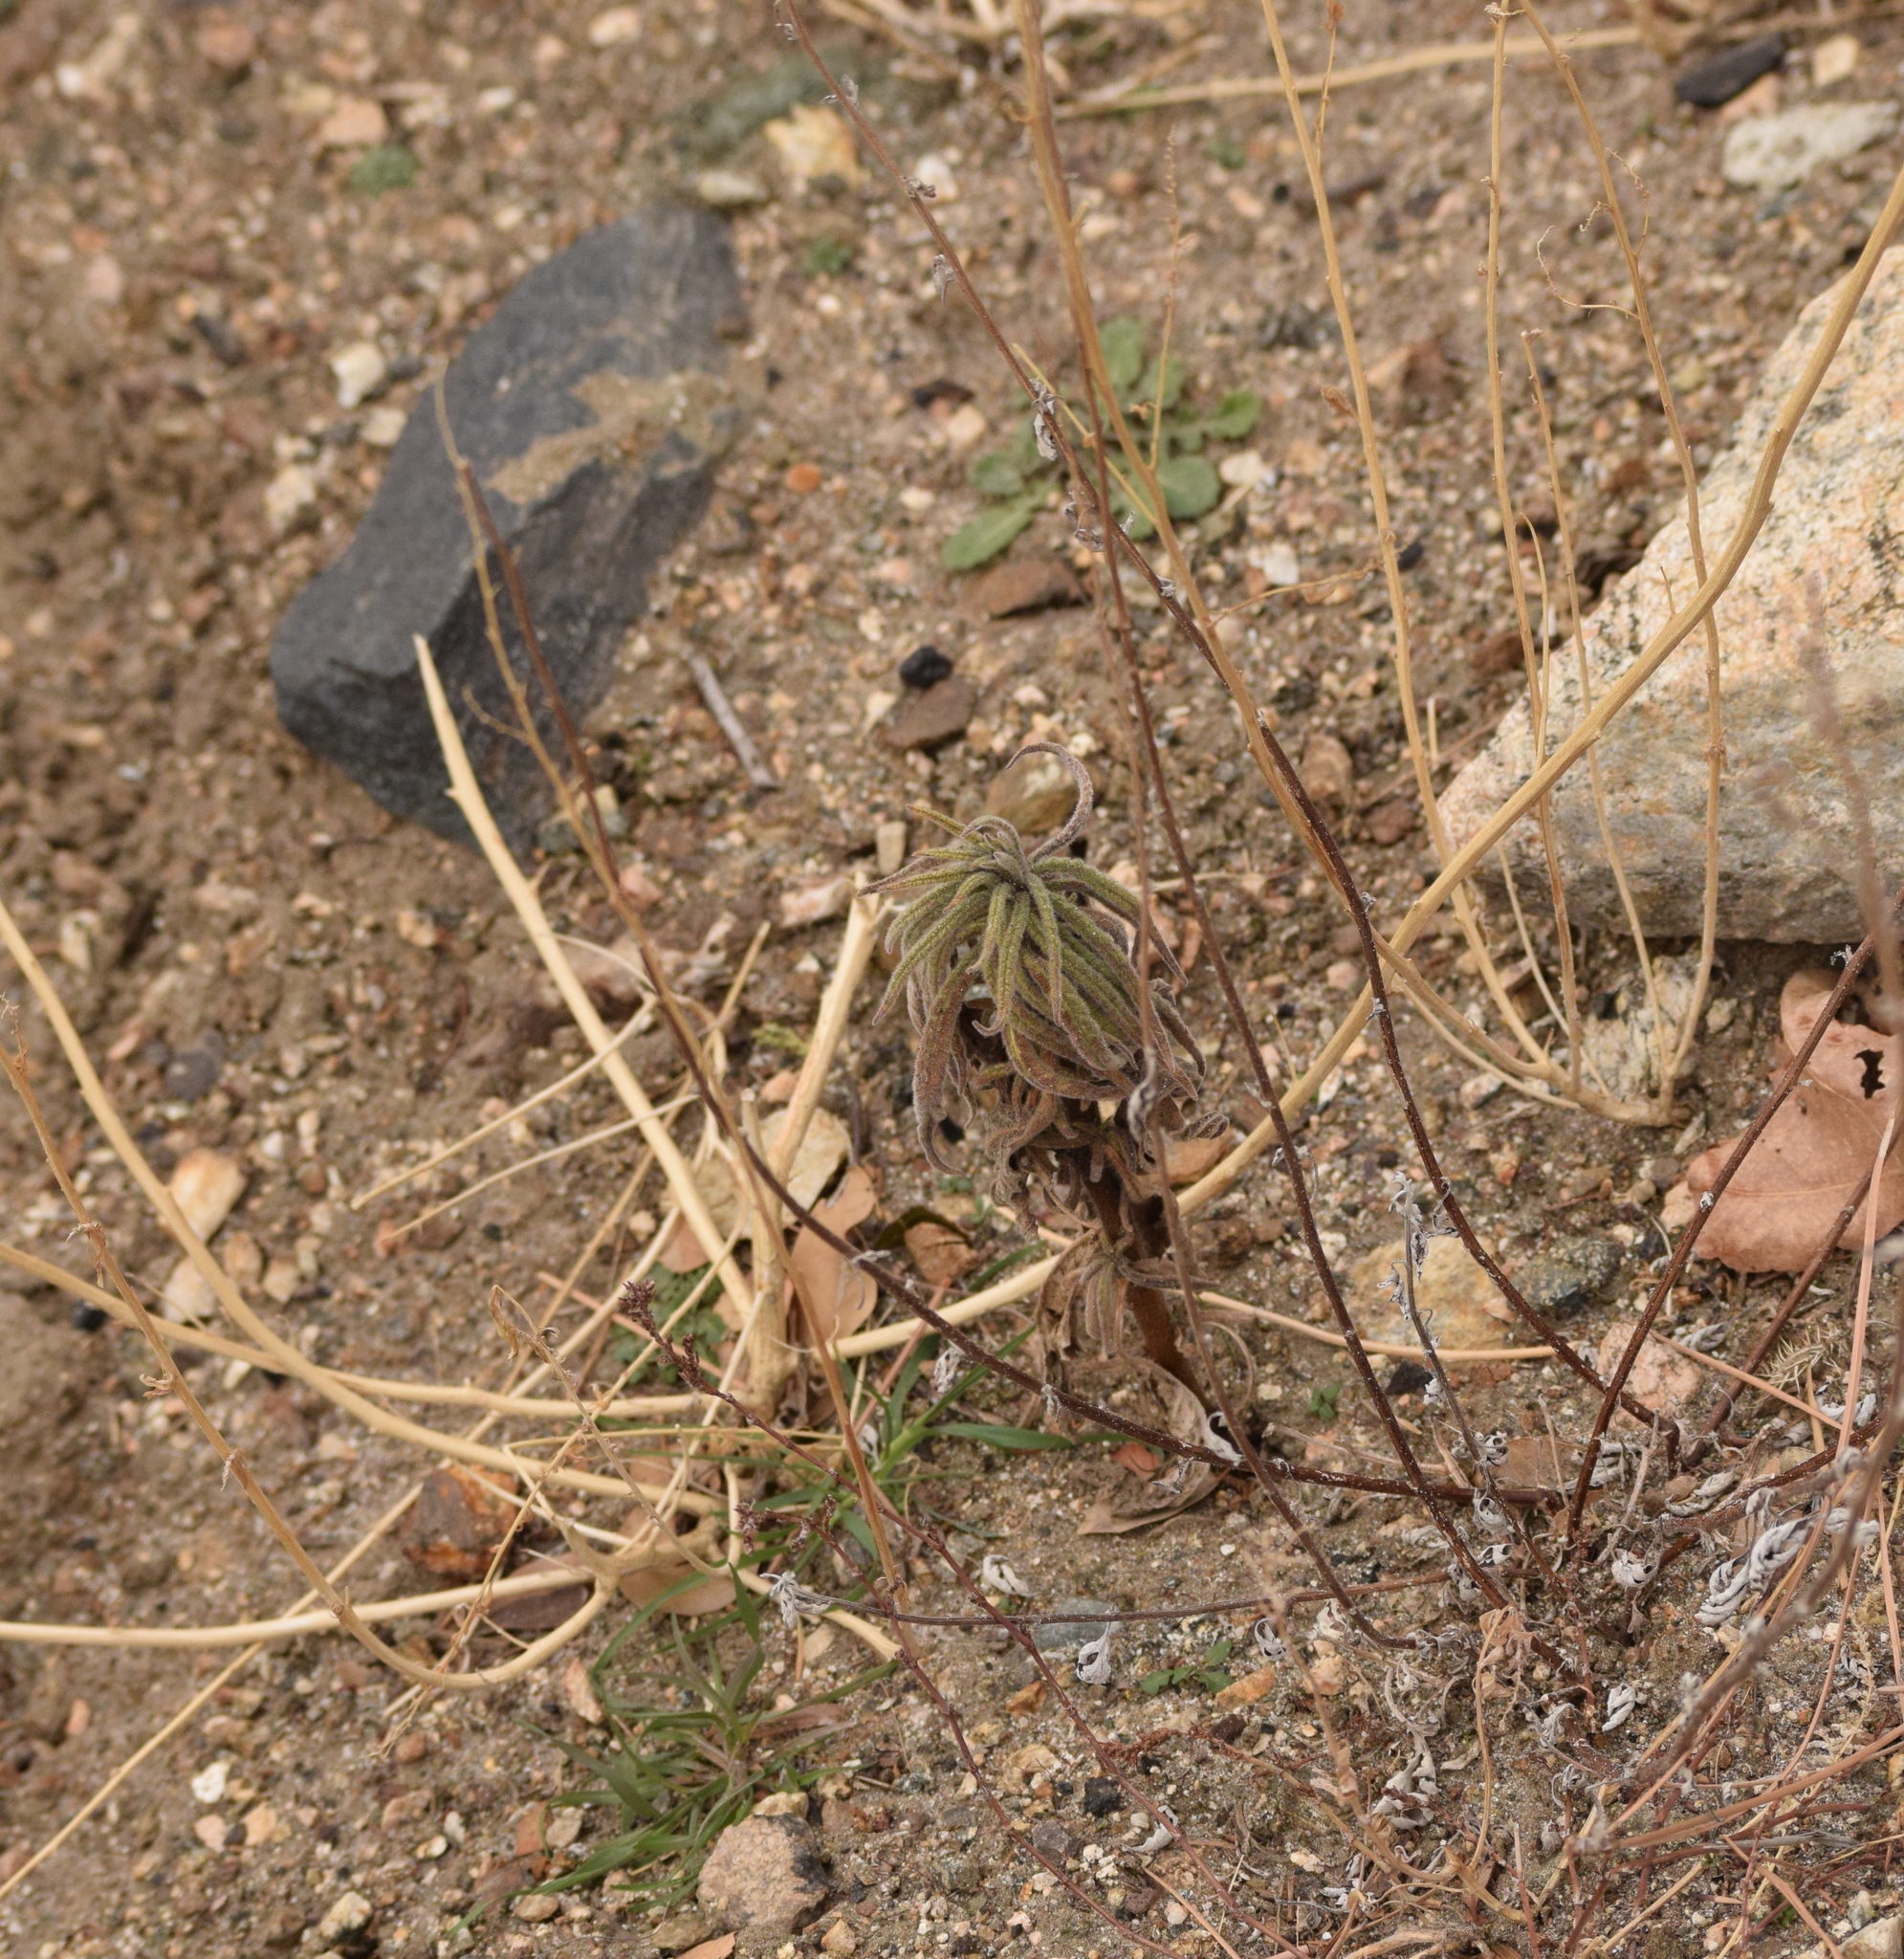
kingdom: Plantae
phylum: Tracheophyta
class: Magnoliopsida
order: Boraginales
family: Namaceae
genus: Turricula
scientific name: Turricula parryi
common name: Poodle-dog-bush
